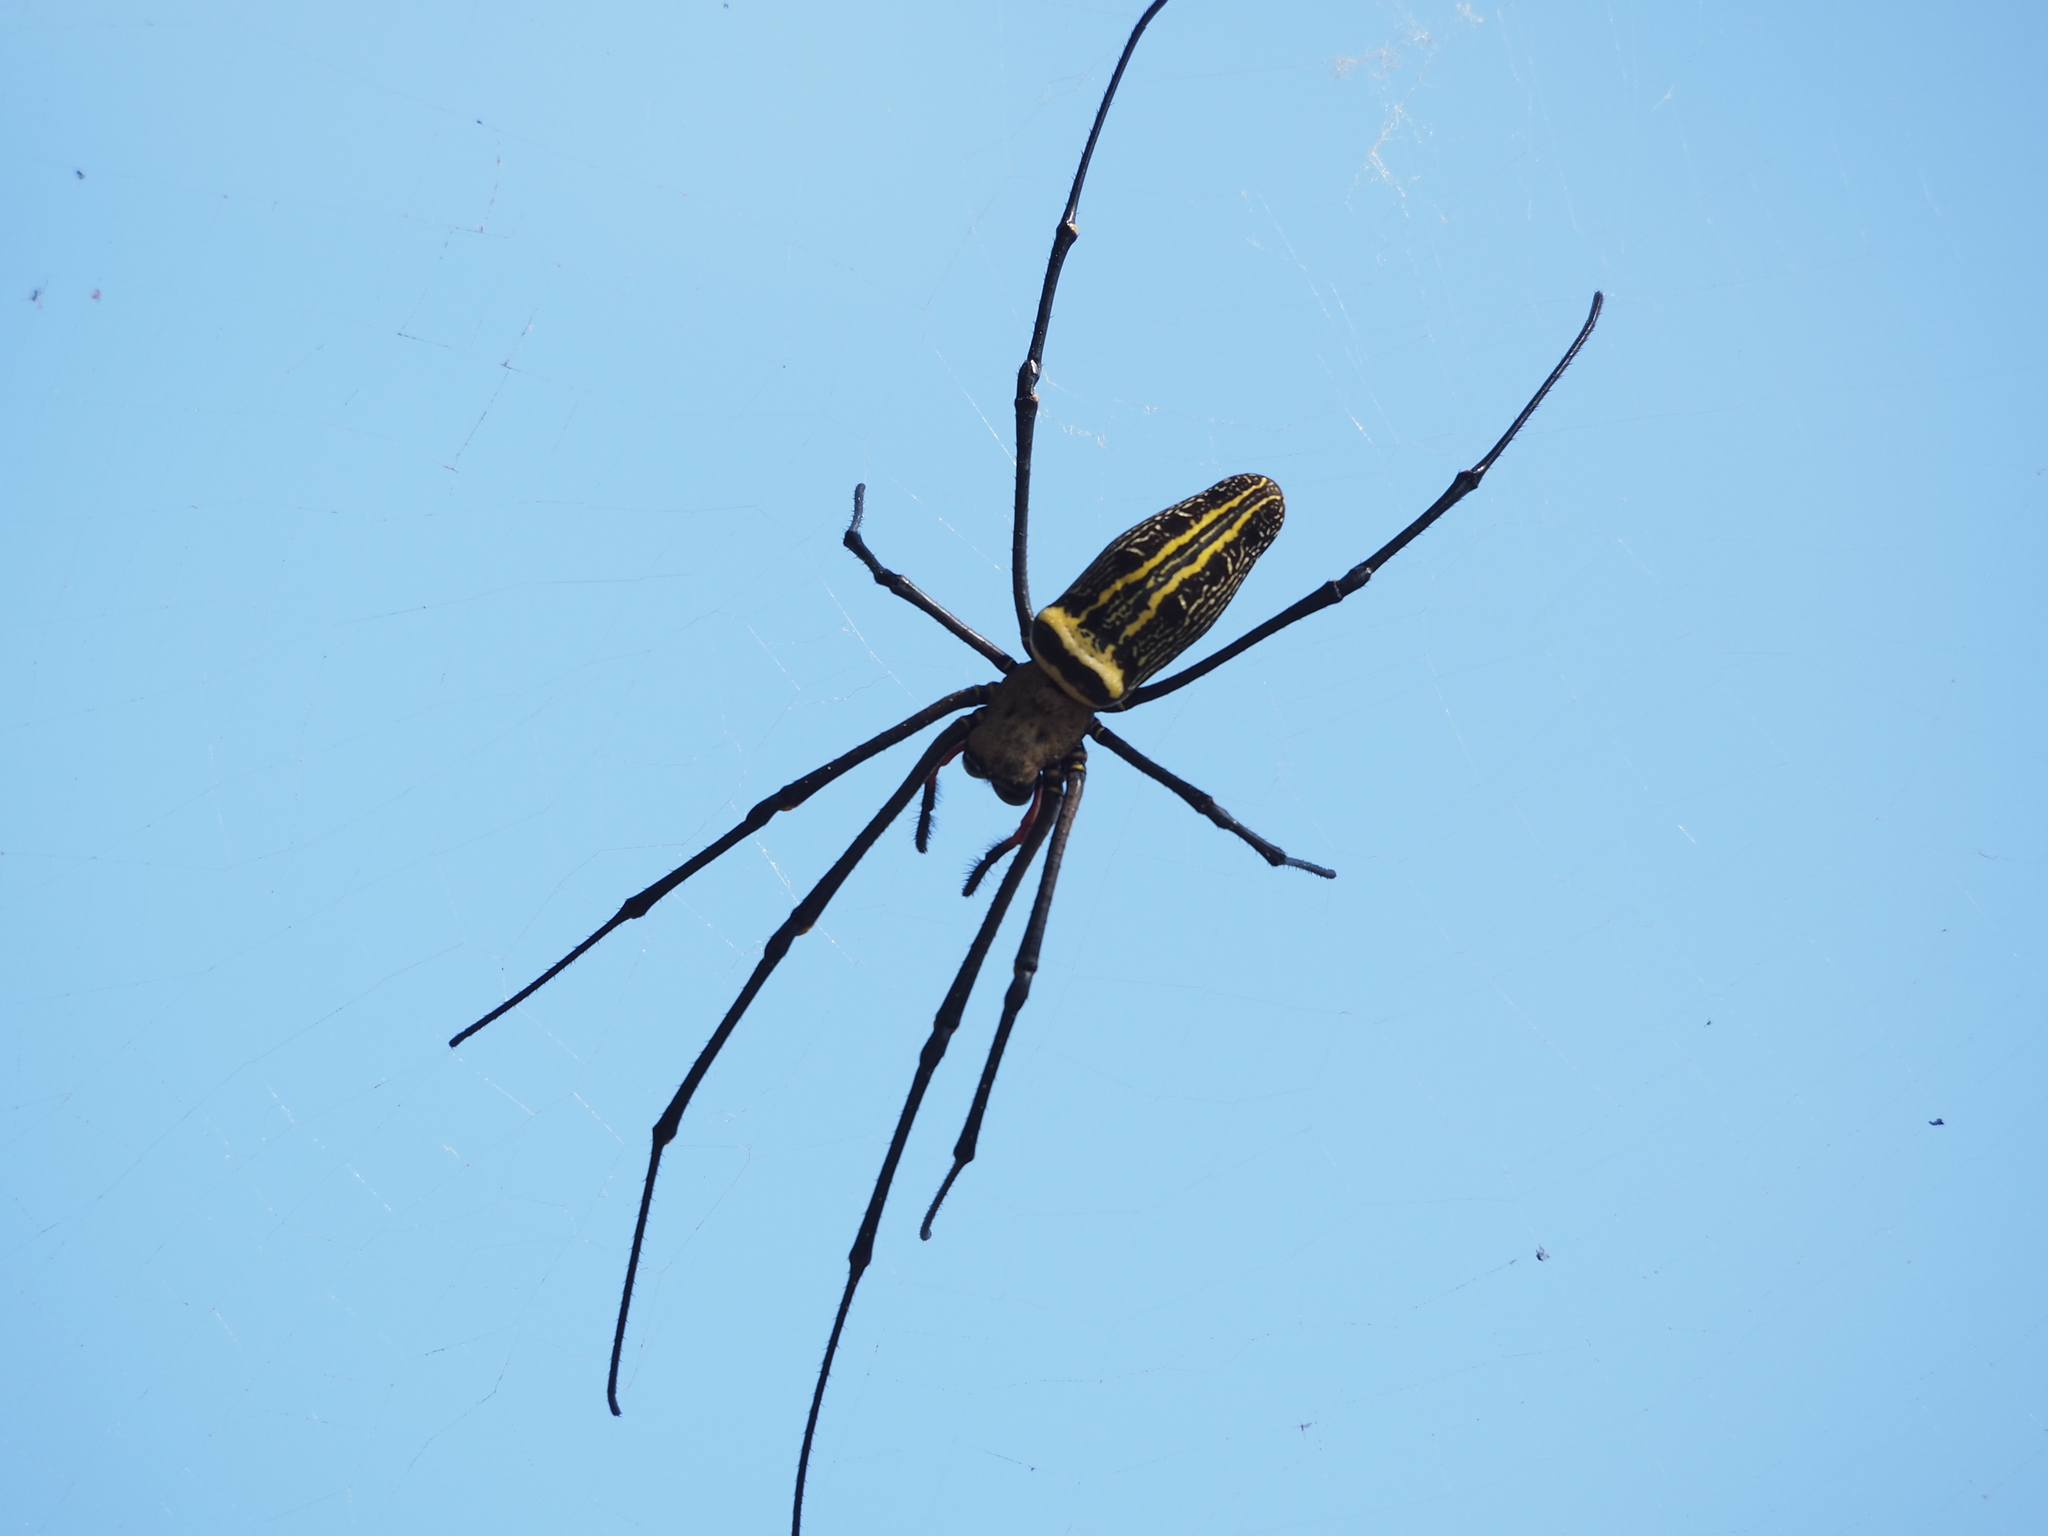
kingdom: Animalia
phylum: Arthropoda
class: Arachnida
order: Araneae
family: Araneidae
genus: Nephila
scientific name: Nephila pilipes
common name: Giant golden orb weaver
